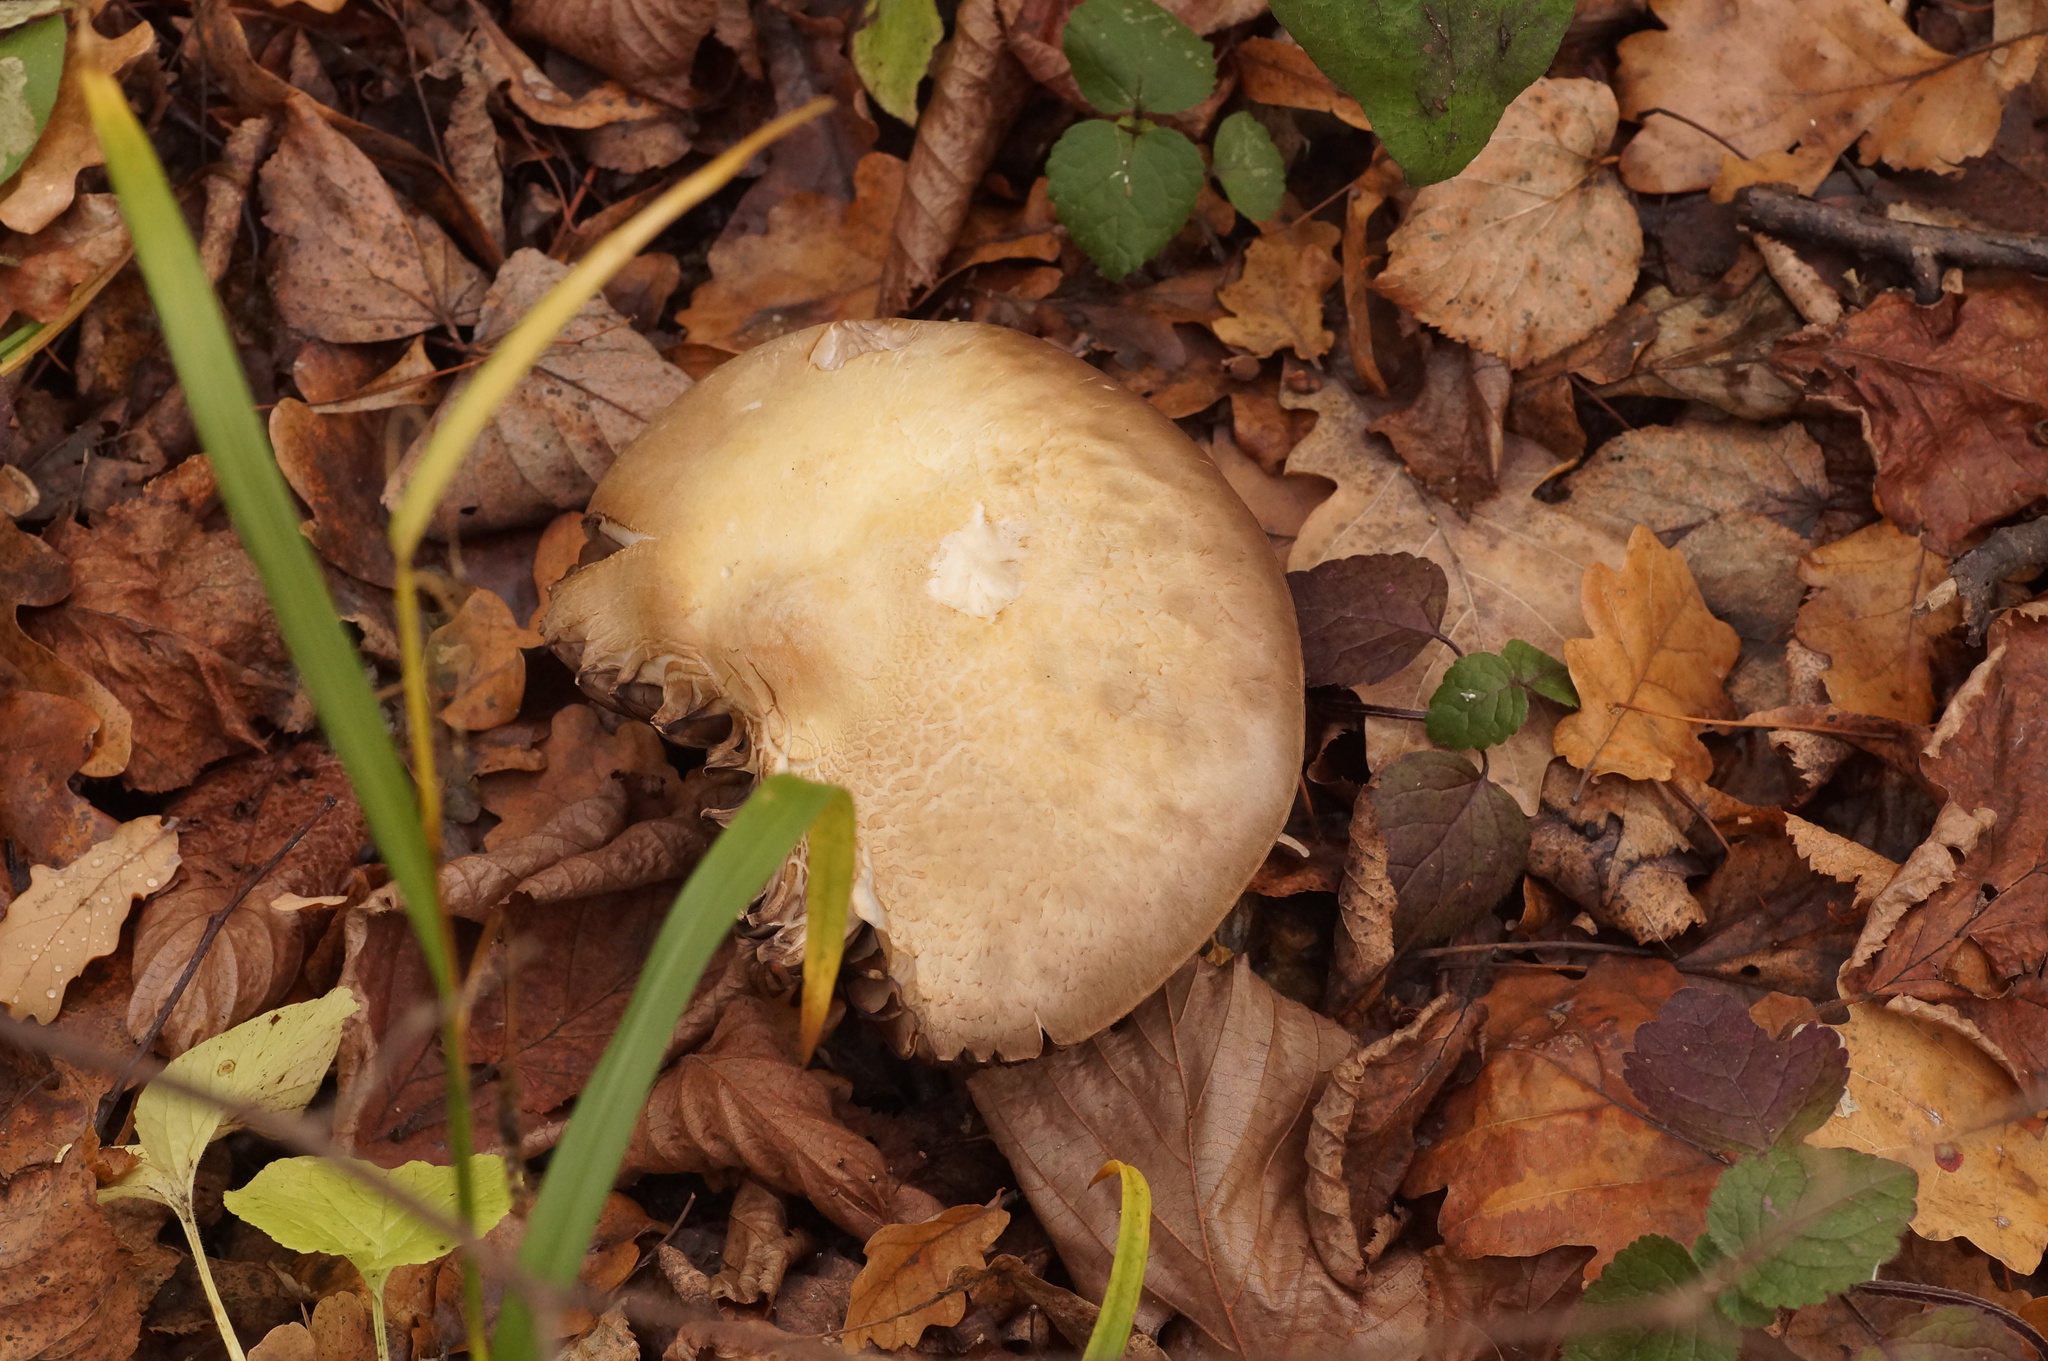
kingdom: Fungi
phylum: Basidiomycota
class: Agaricomycetes
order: Agaricales
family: Agaricaceae
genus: Agaricus
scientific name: Agaricus sylvicola
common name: Wood mushroom
